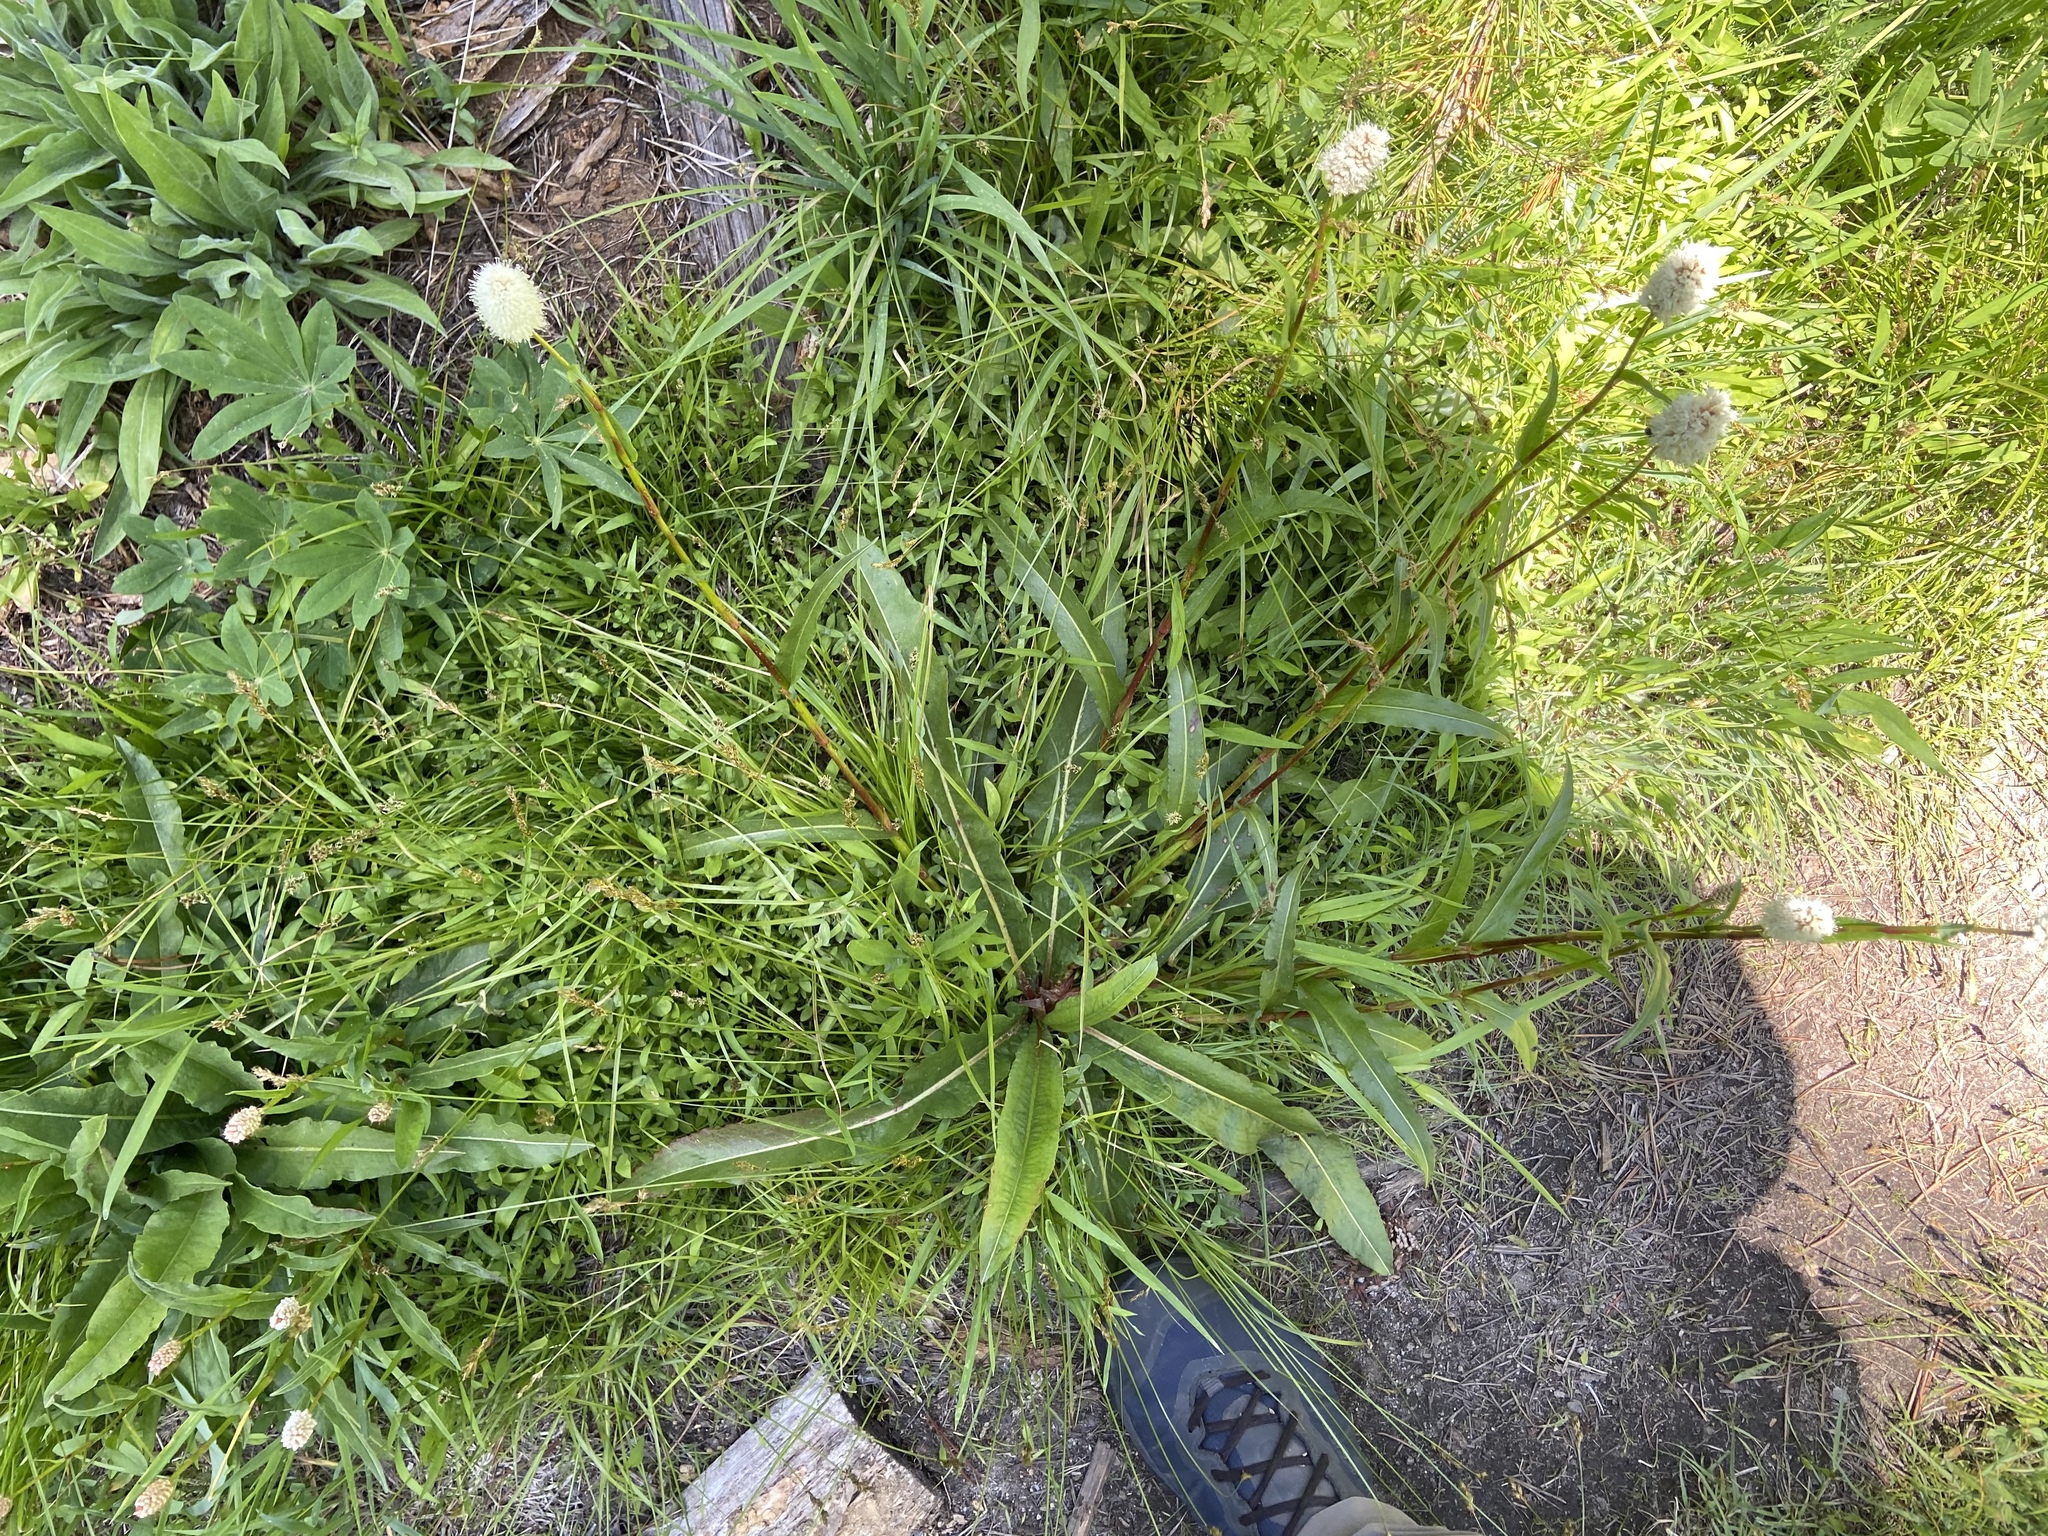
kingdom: Plantae
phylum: Tracheophyta
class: Magnoliopsida
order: Caryophyllales
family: Polygonaceae
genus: Bistorta
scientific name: Bistorta bistortoides
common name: American bistort
